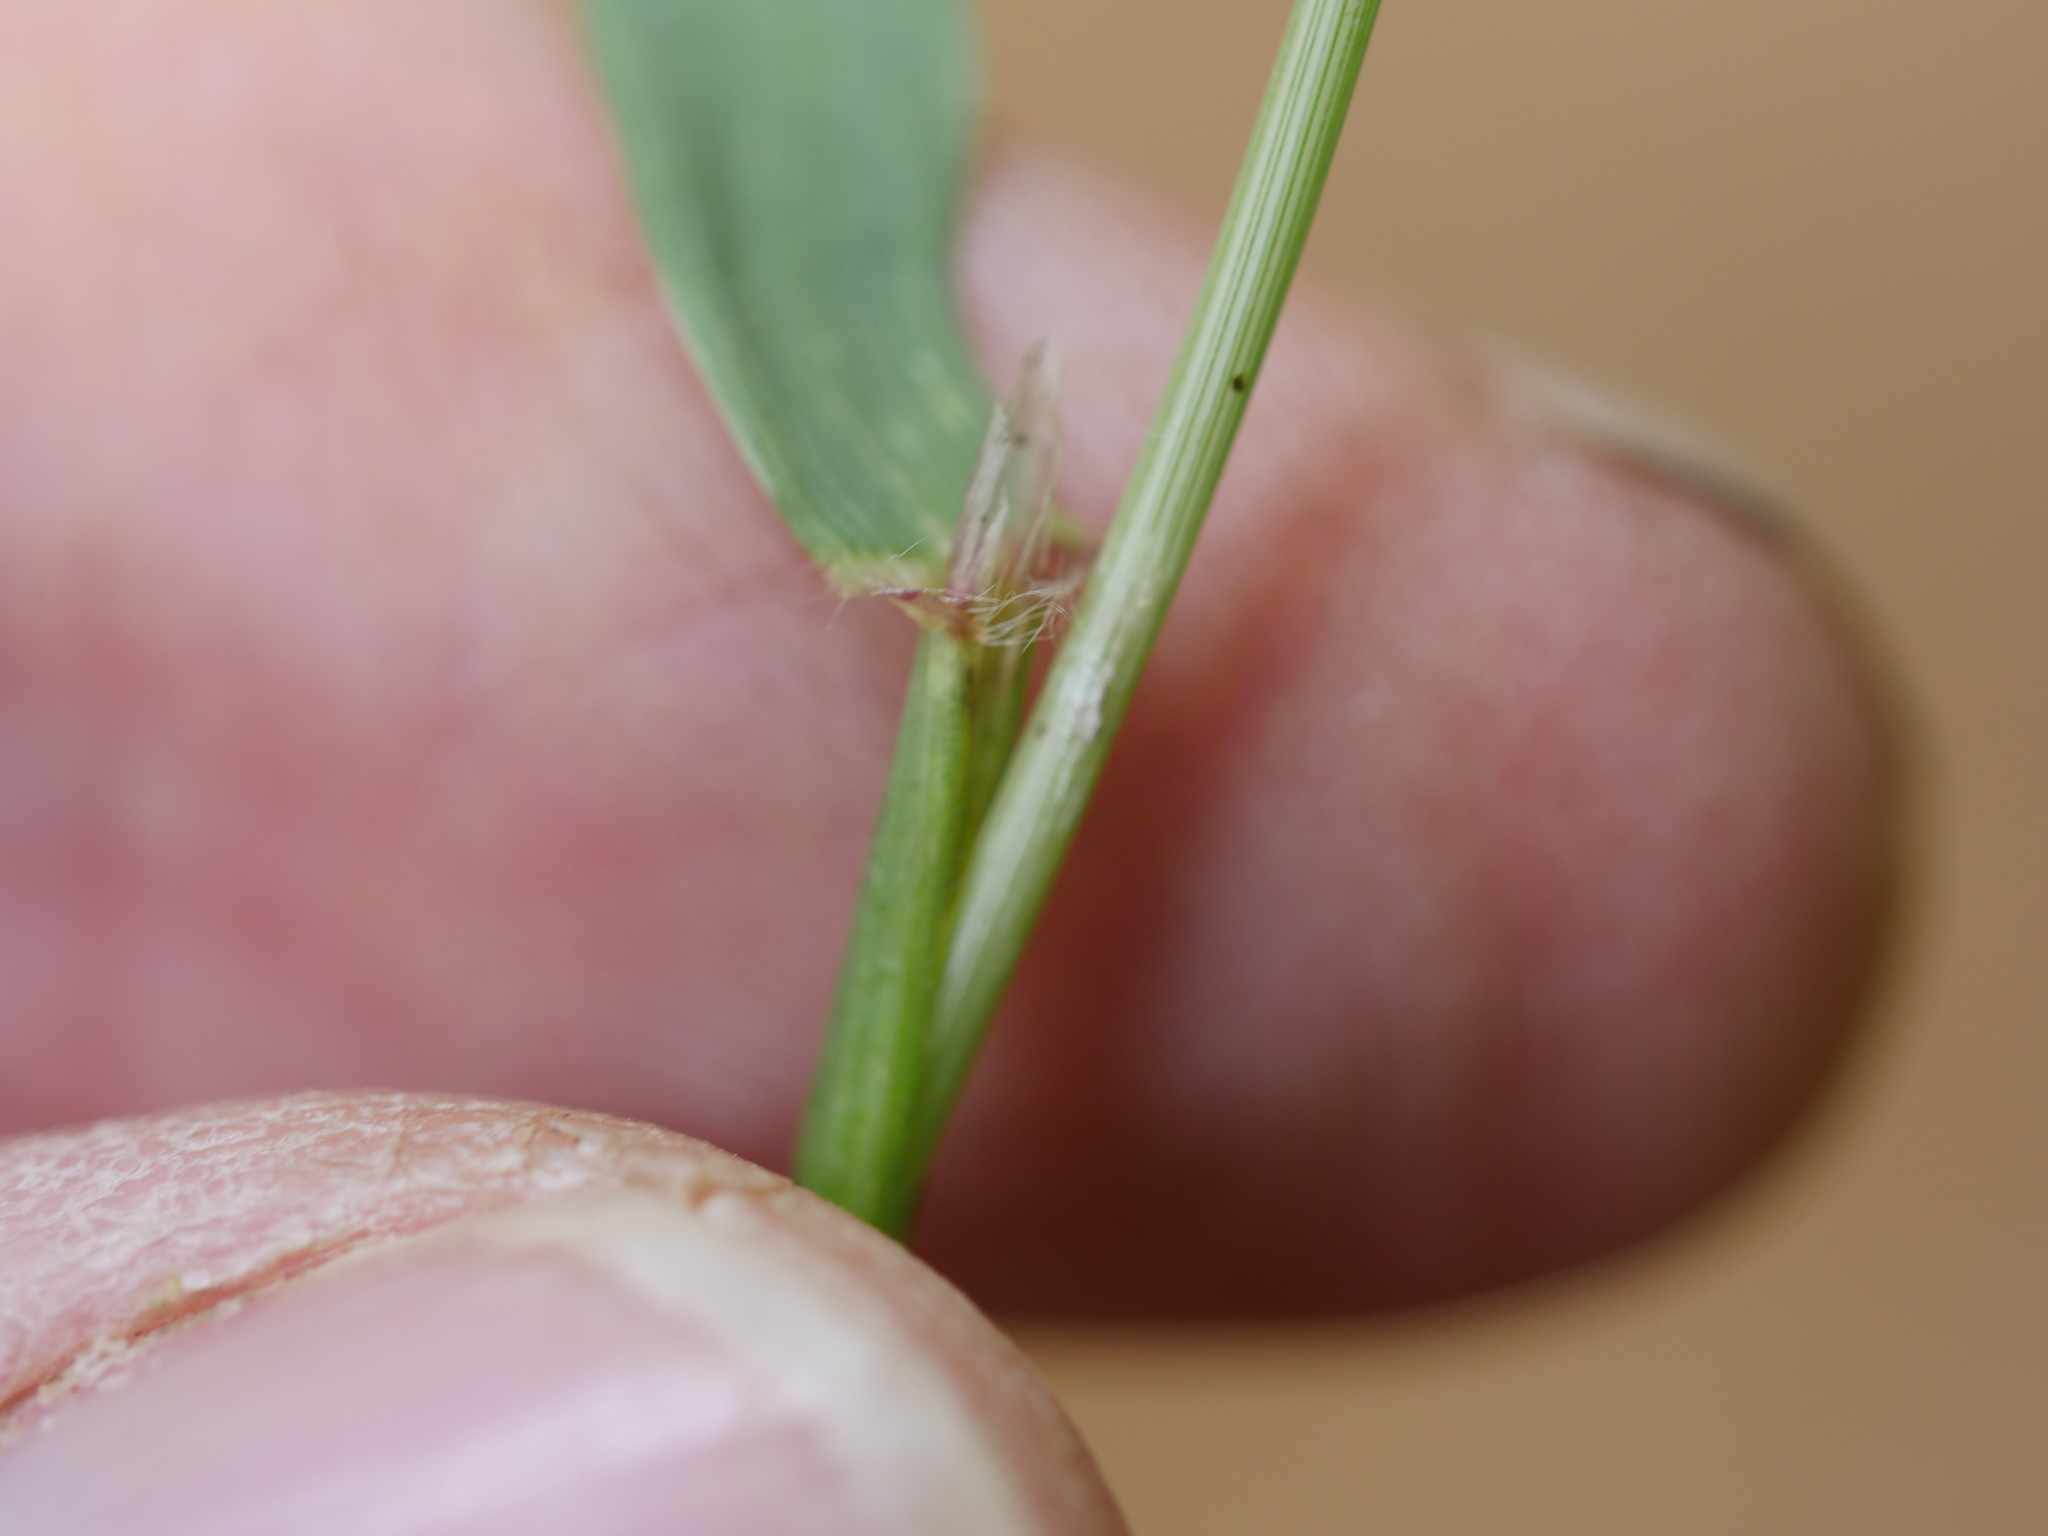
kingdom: Plantae
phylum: Tracheophyta
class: Liliopsida
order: Poales
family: Poaceae
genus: Anthoxanthum
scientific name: Anthoxanthum odoratum
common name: Sweet vernalgrass
